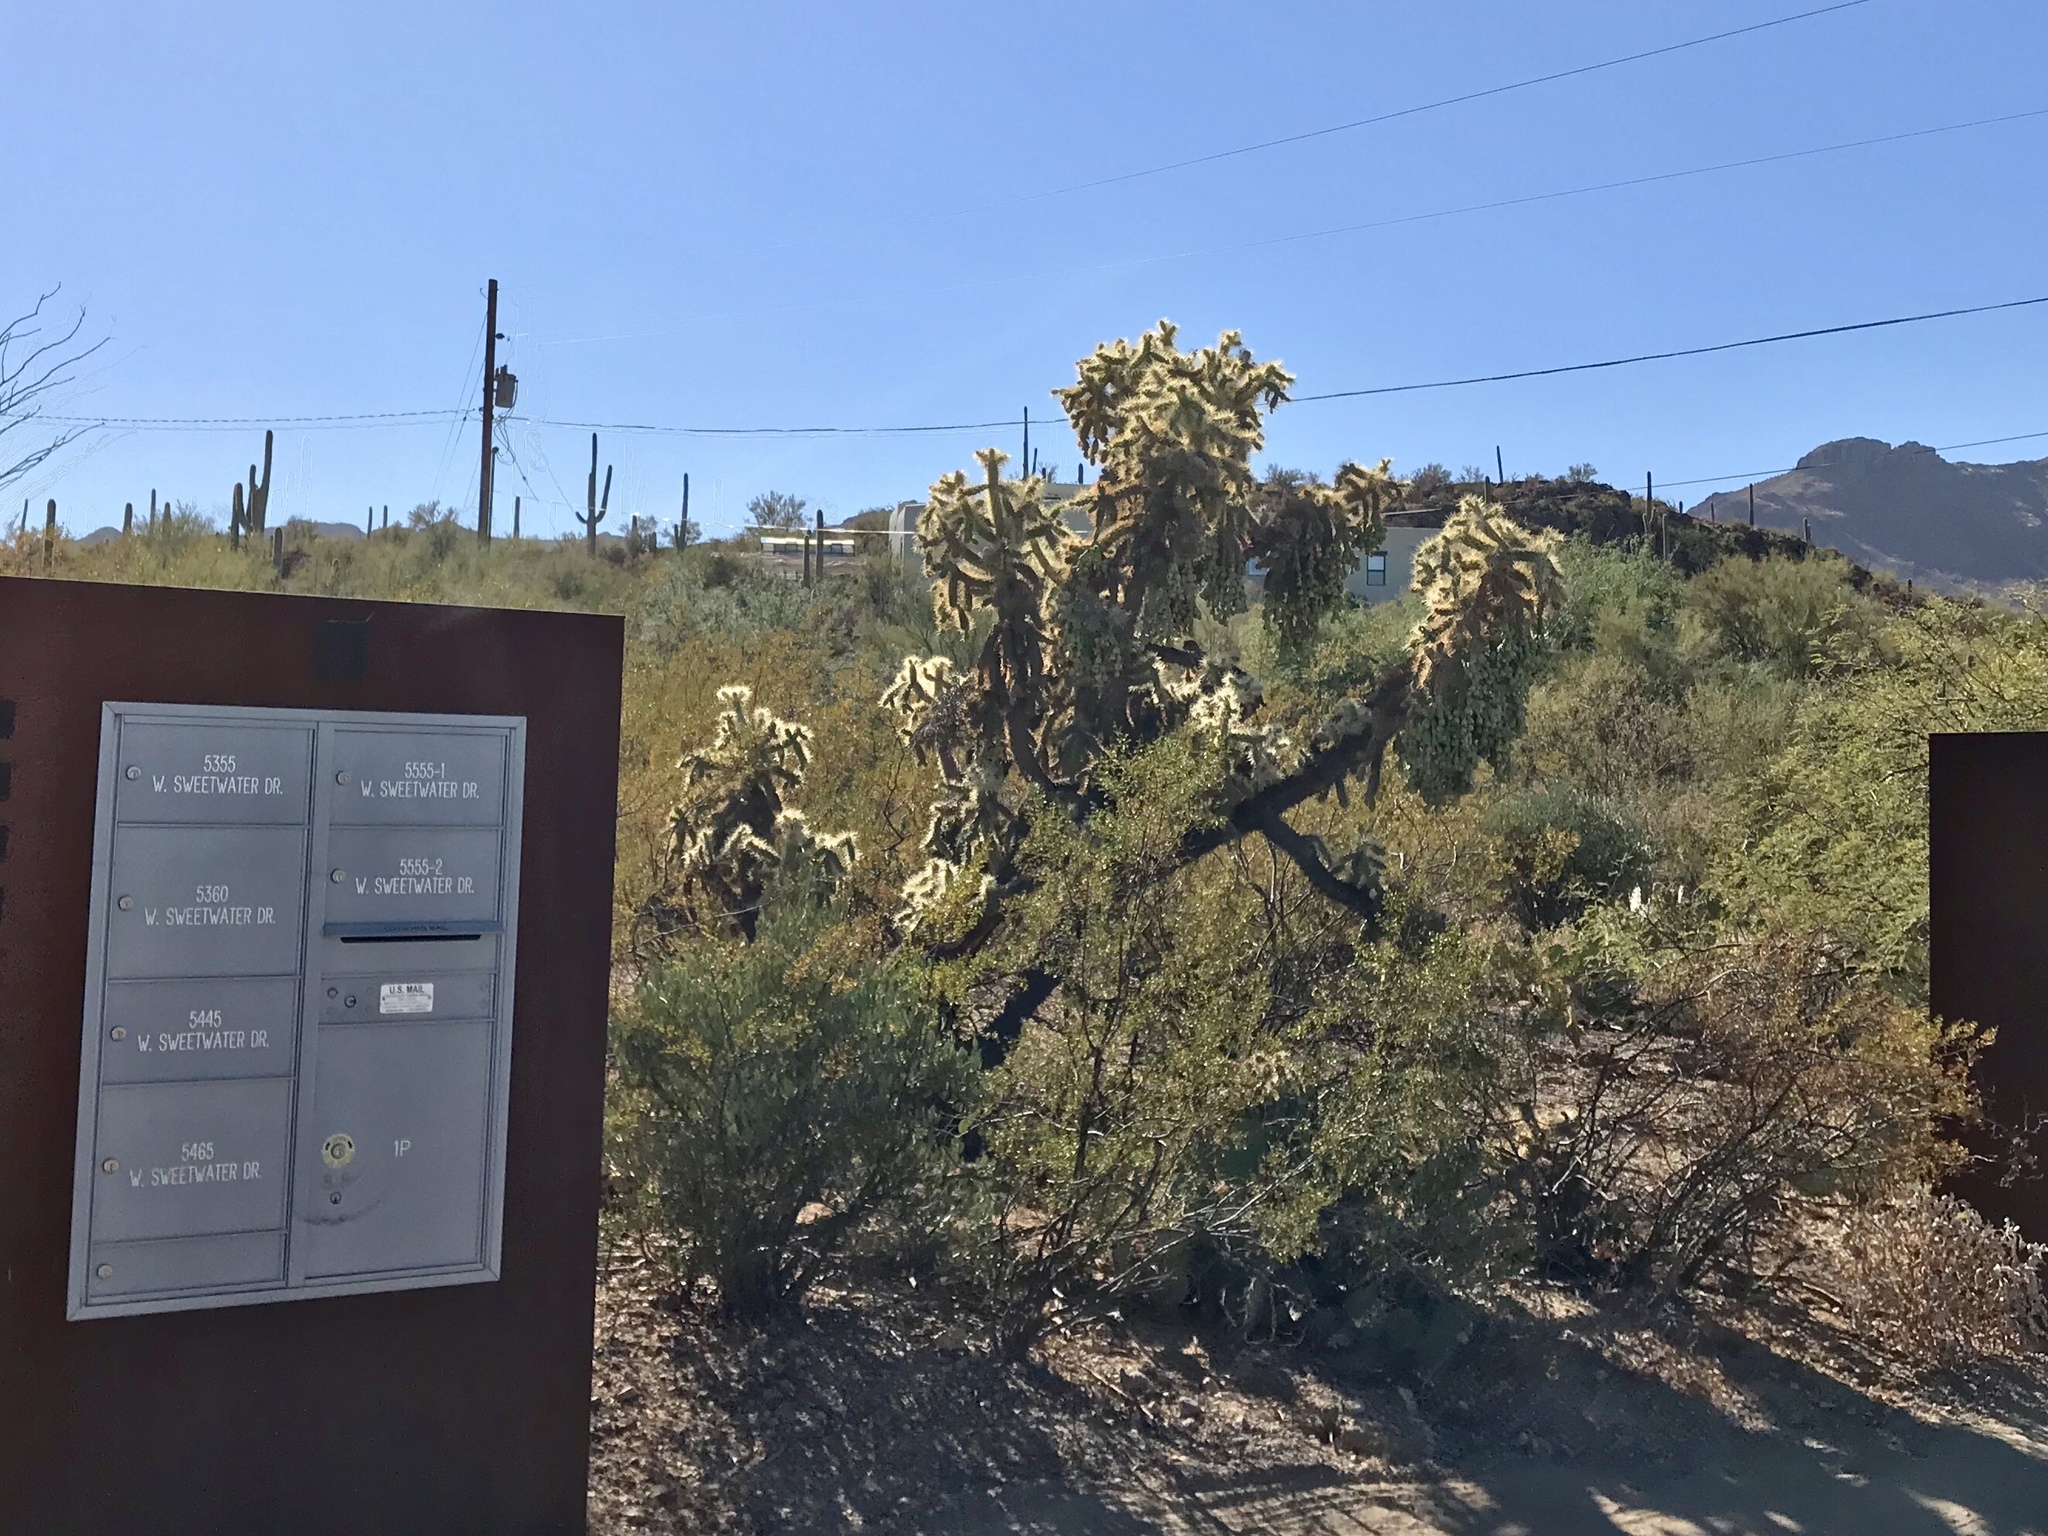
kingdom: Plantae
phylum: Tracheophyta
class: Magnoliopsida
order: Caryophyllales
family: Cactaceae
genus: Cylindropuntia
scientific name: Cylindropuntia fulgida
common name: Jumping cholla
